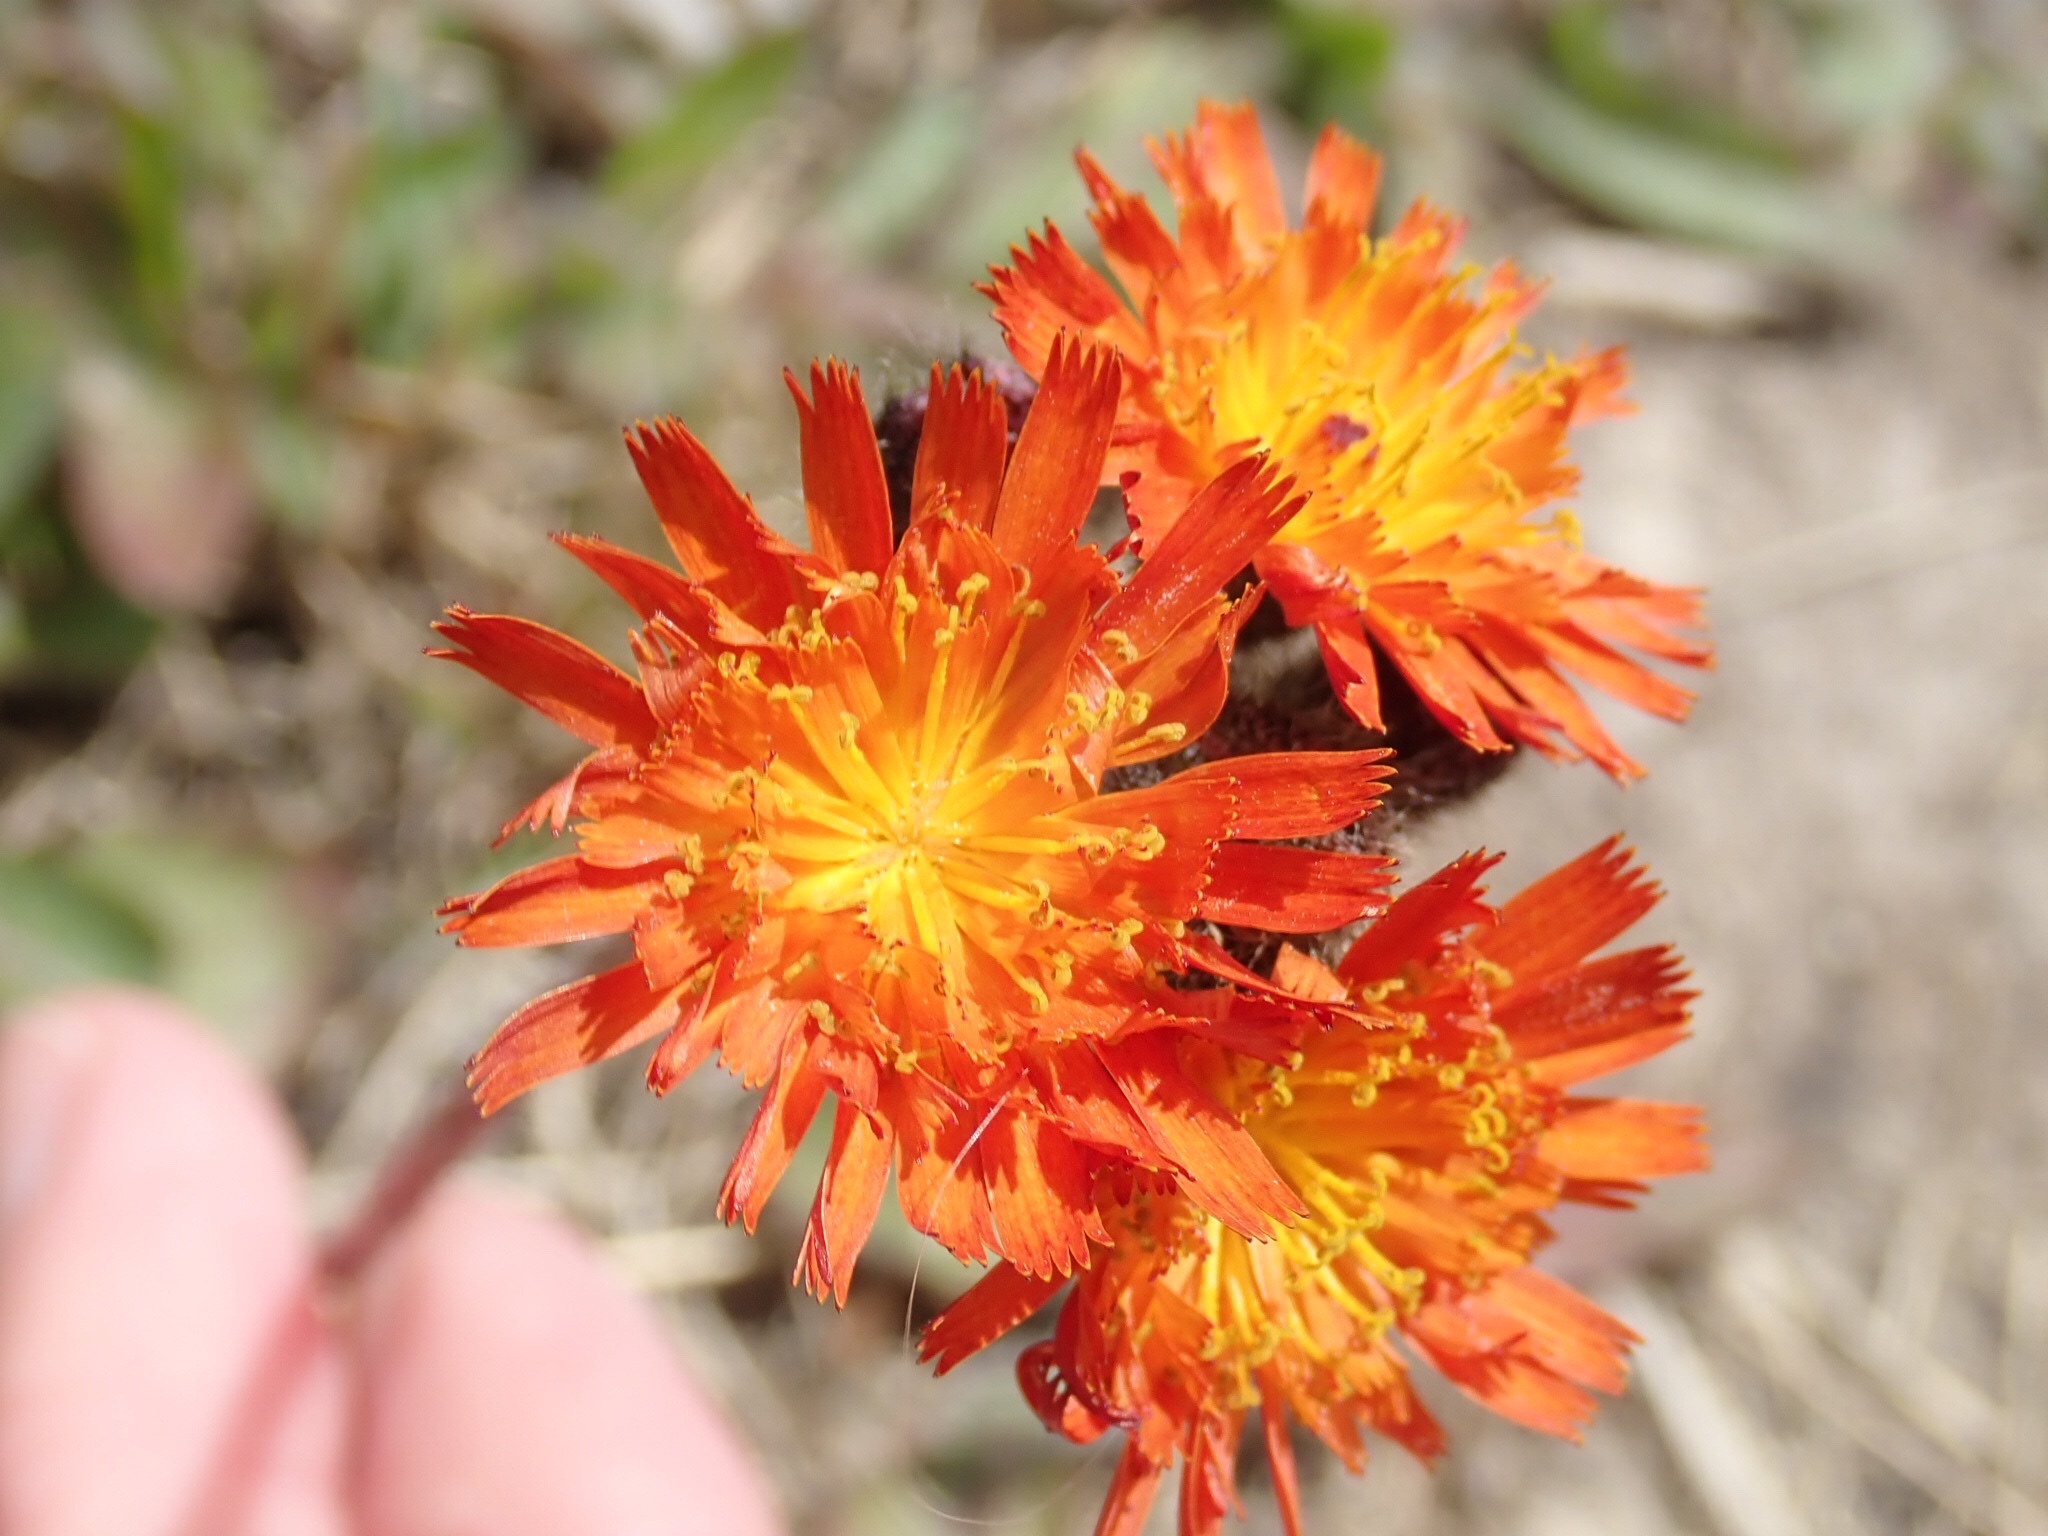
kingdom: Plantae
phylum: Tracheophyta
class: Magnoliopsida
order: Asterales
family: Asteraceae
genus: Pilosella
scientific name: Pilosella aurantiaca
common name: Fox-and-cubs
